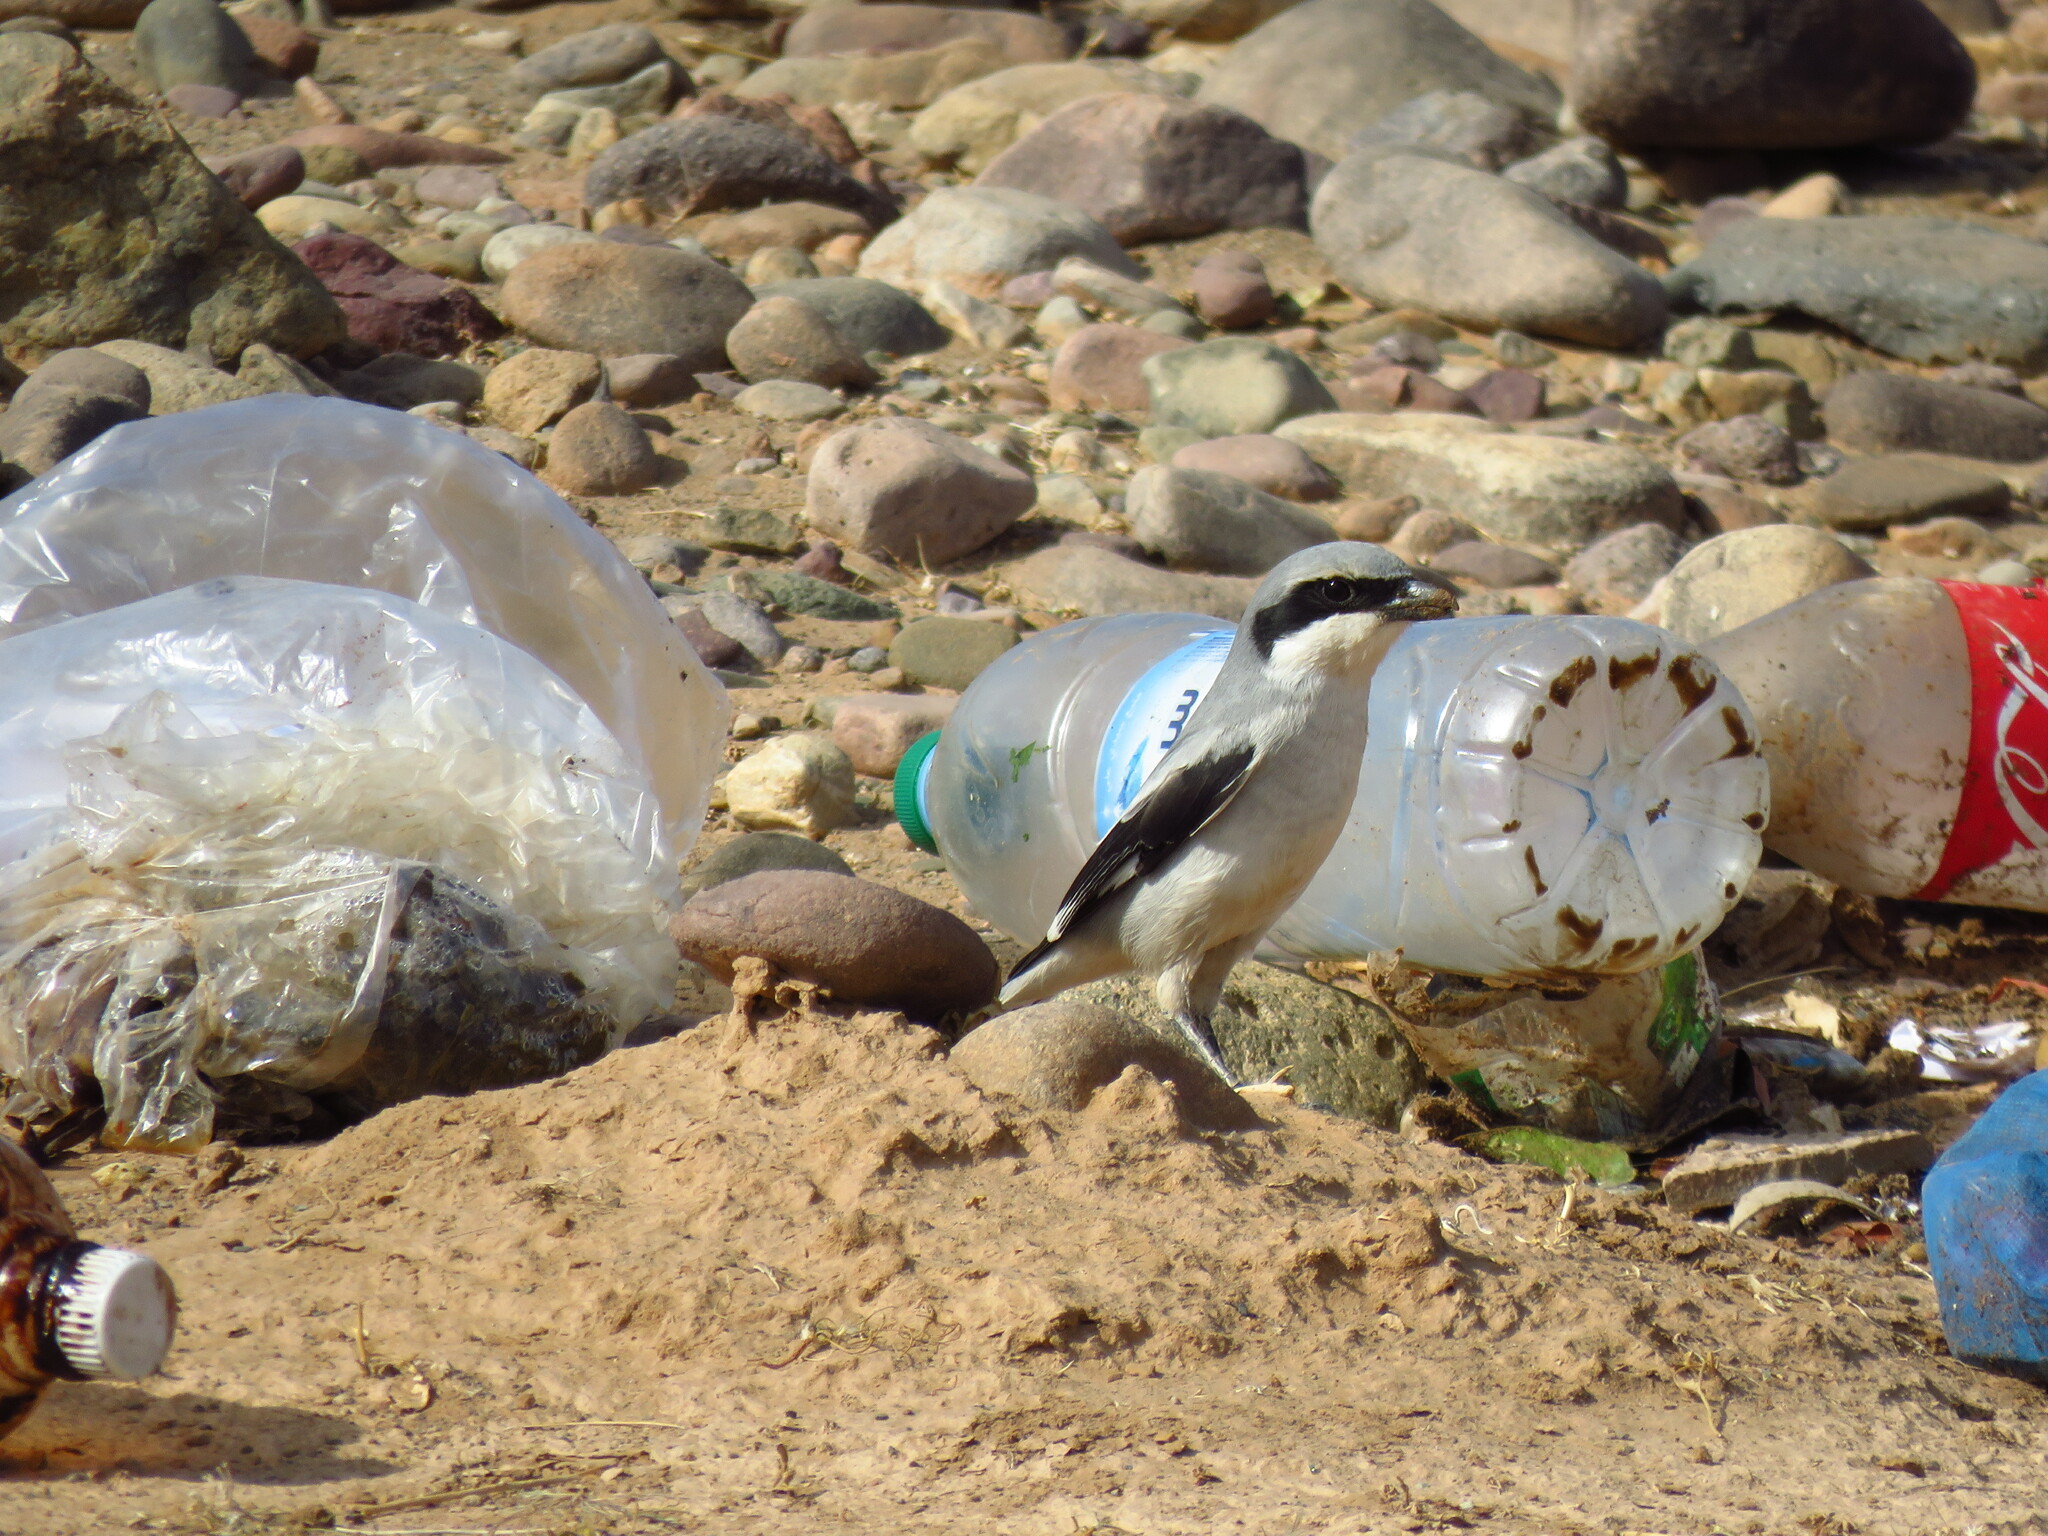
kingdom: Animalia
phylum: Chordata
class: Aves
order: Passeriformes
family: Laniidae
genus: Lanius
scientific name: Lanius excubitor
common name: Great grey shrike
